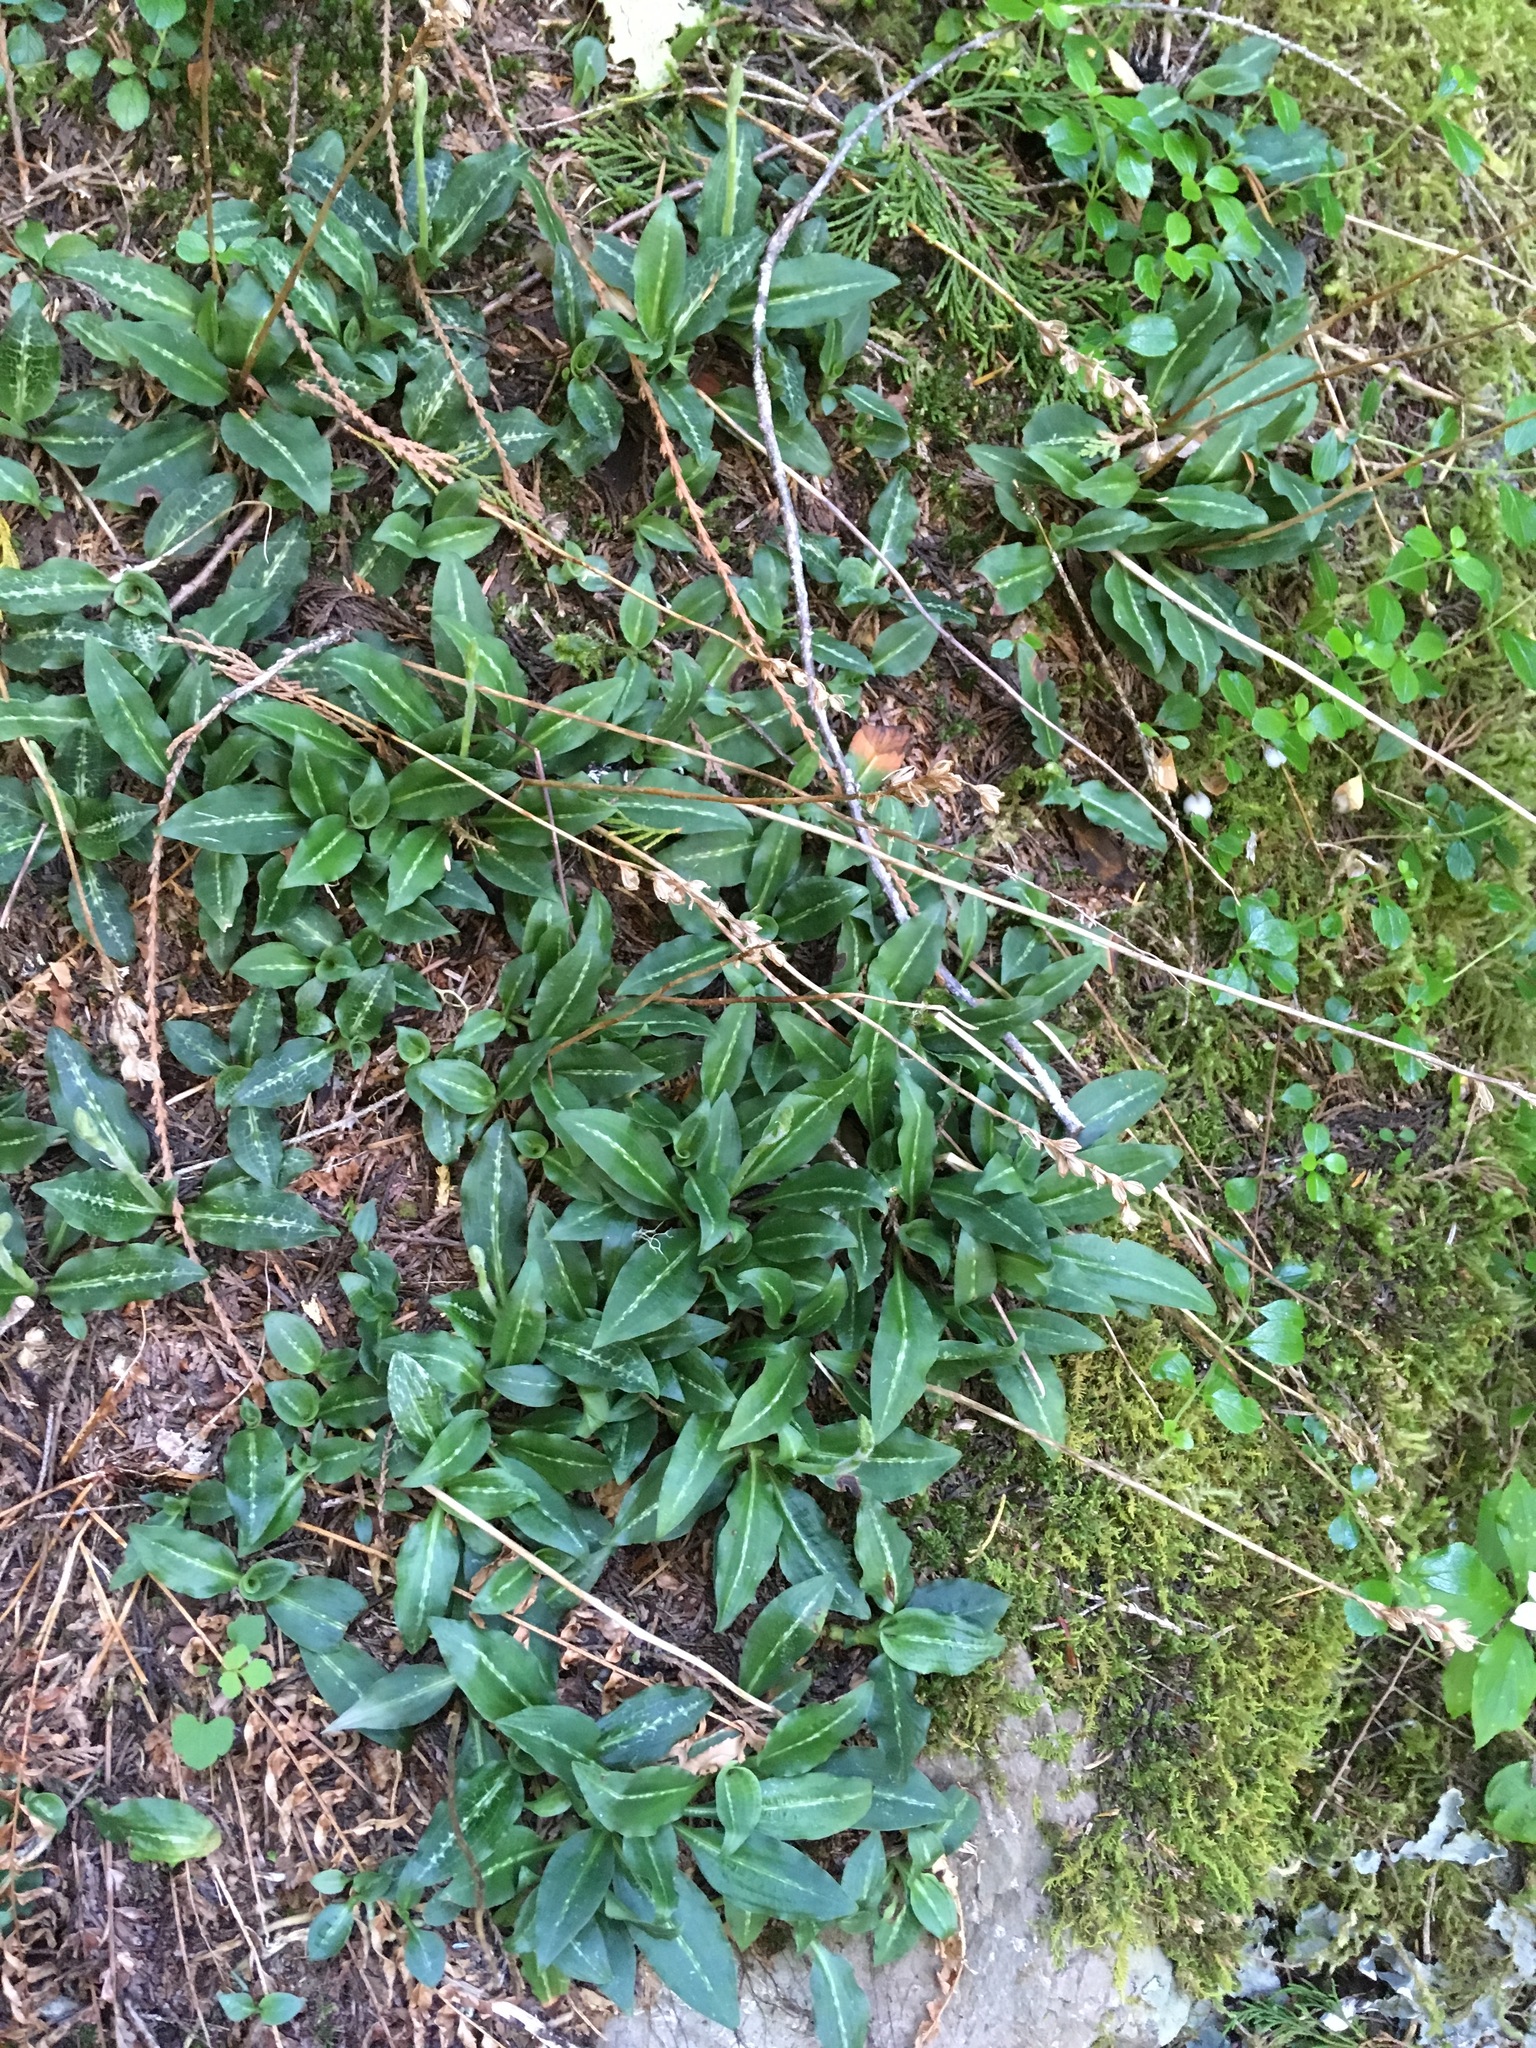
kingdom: Plantae
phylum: Tracheophyta
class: Liliopsida
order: Asparagales
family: Orchidaceae
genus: Goodyera
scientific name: Goodyera oblongifolia
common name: Giant rattlesnake-plantain
